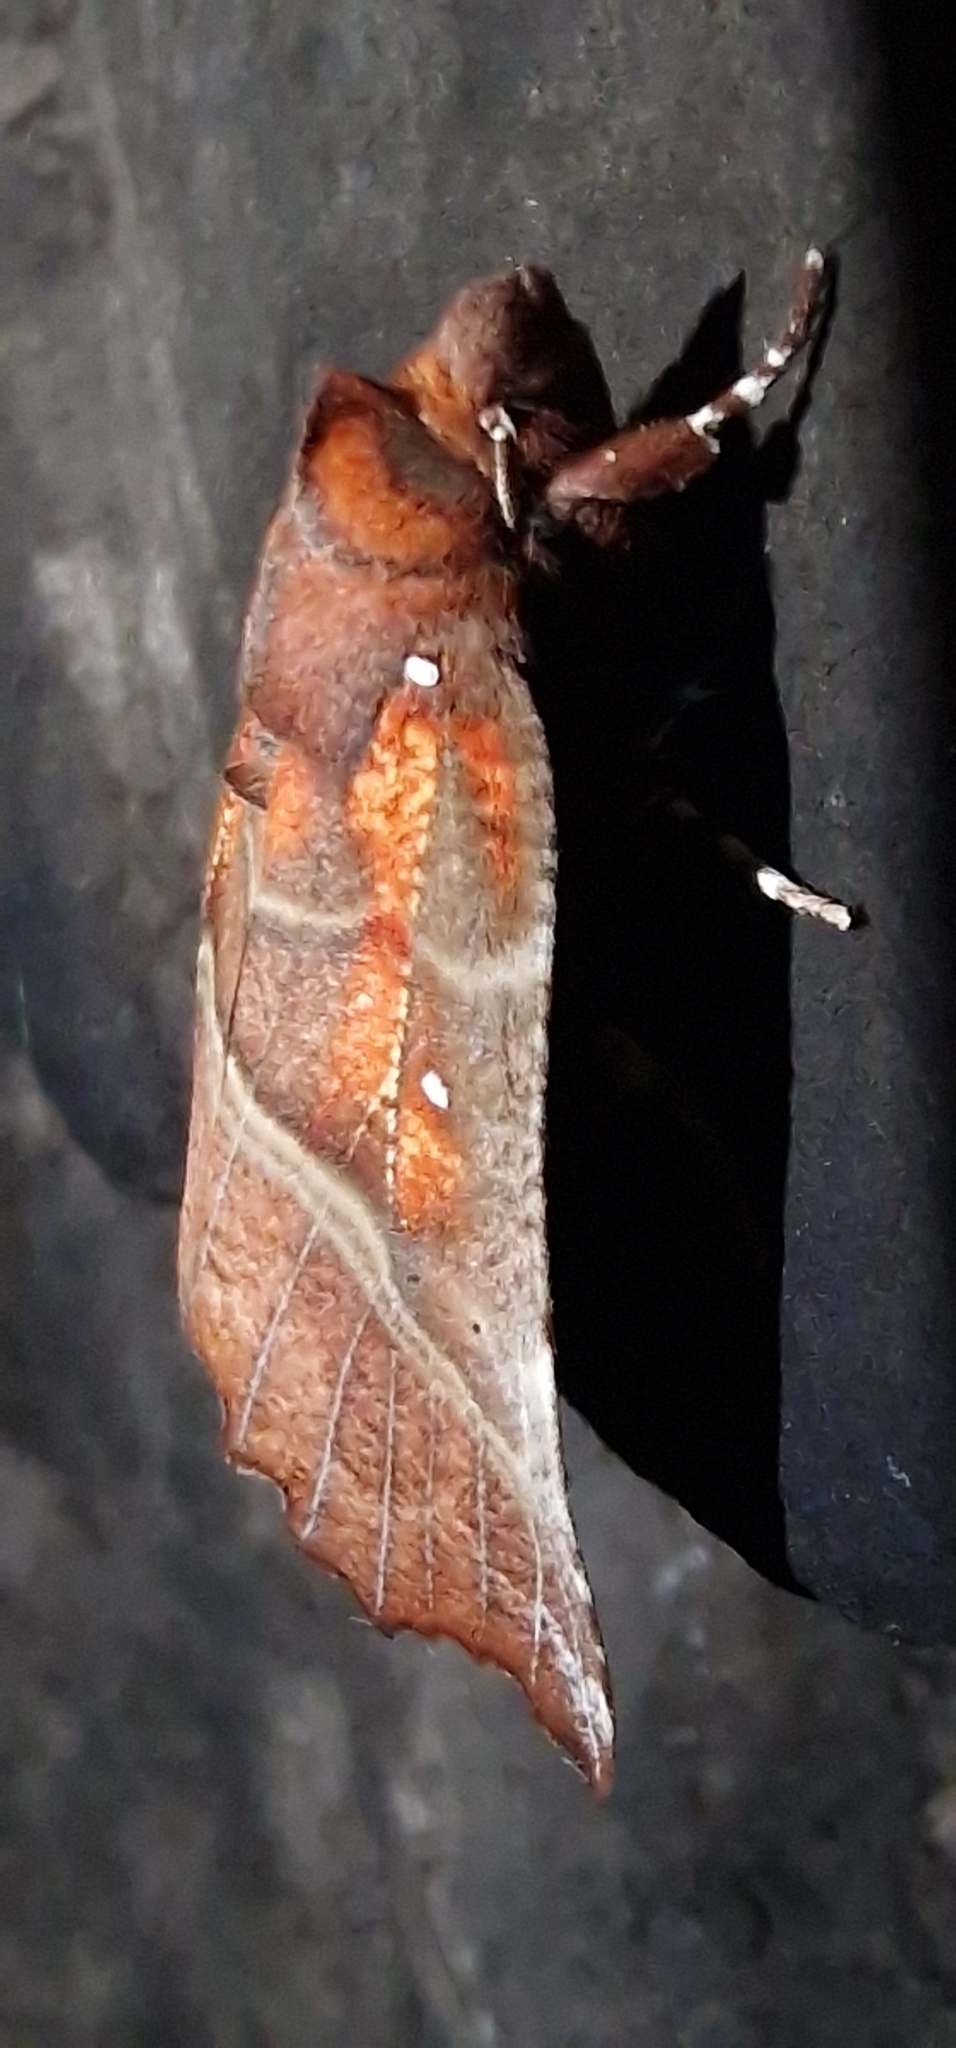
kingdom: Animalia
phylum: Arthropoda
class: Insecta
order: Lepidoptera
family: Erebidae
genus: Scoliopteryx
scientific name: Scoliopteryx libatrix
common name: Herald
